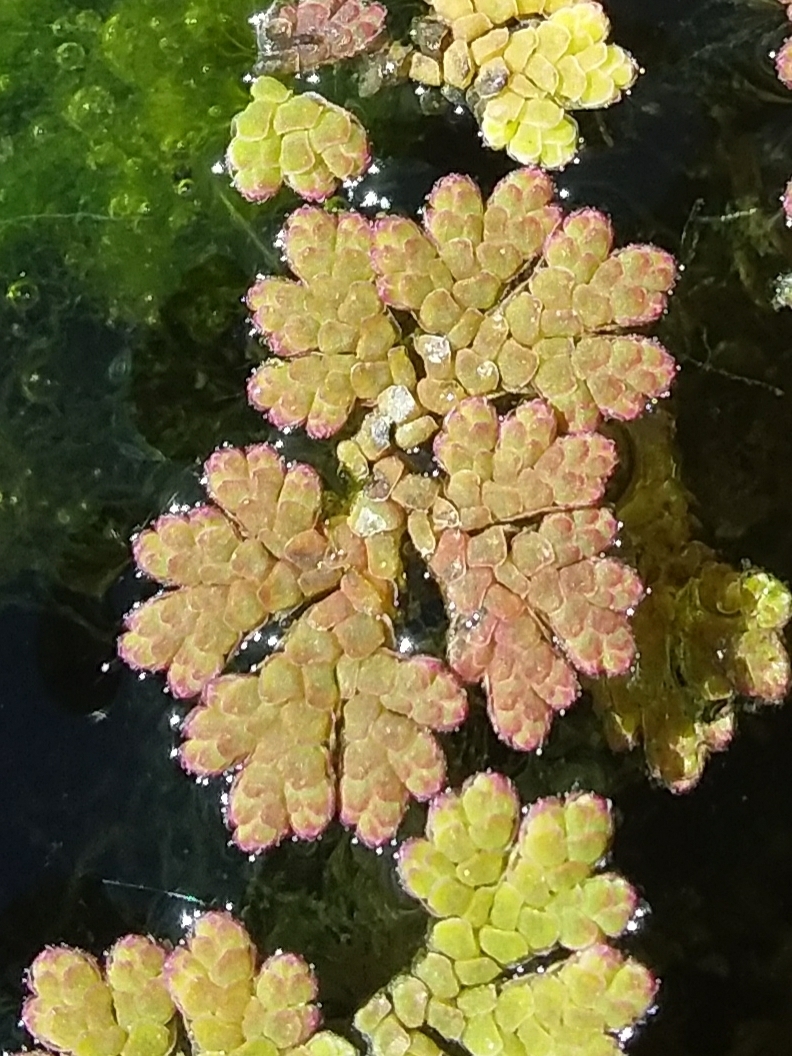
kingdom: Plantae
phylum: Tracheophyta
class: Polypodiopsida
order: Salviniales
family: Salviniaceae
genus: Azolla
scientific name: Azolla rubra
